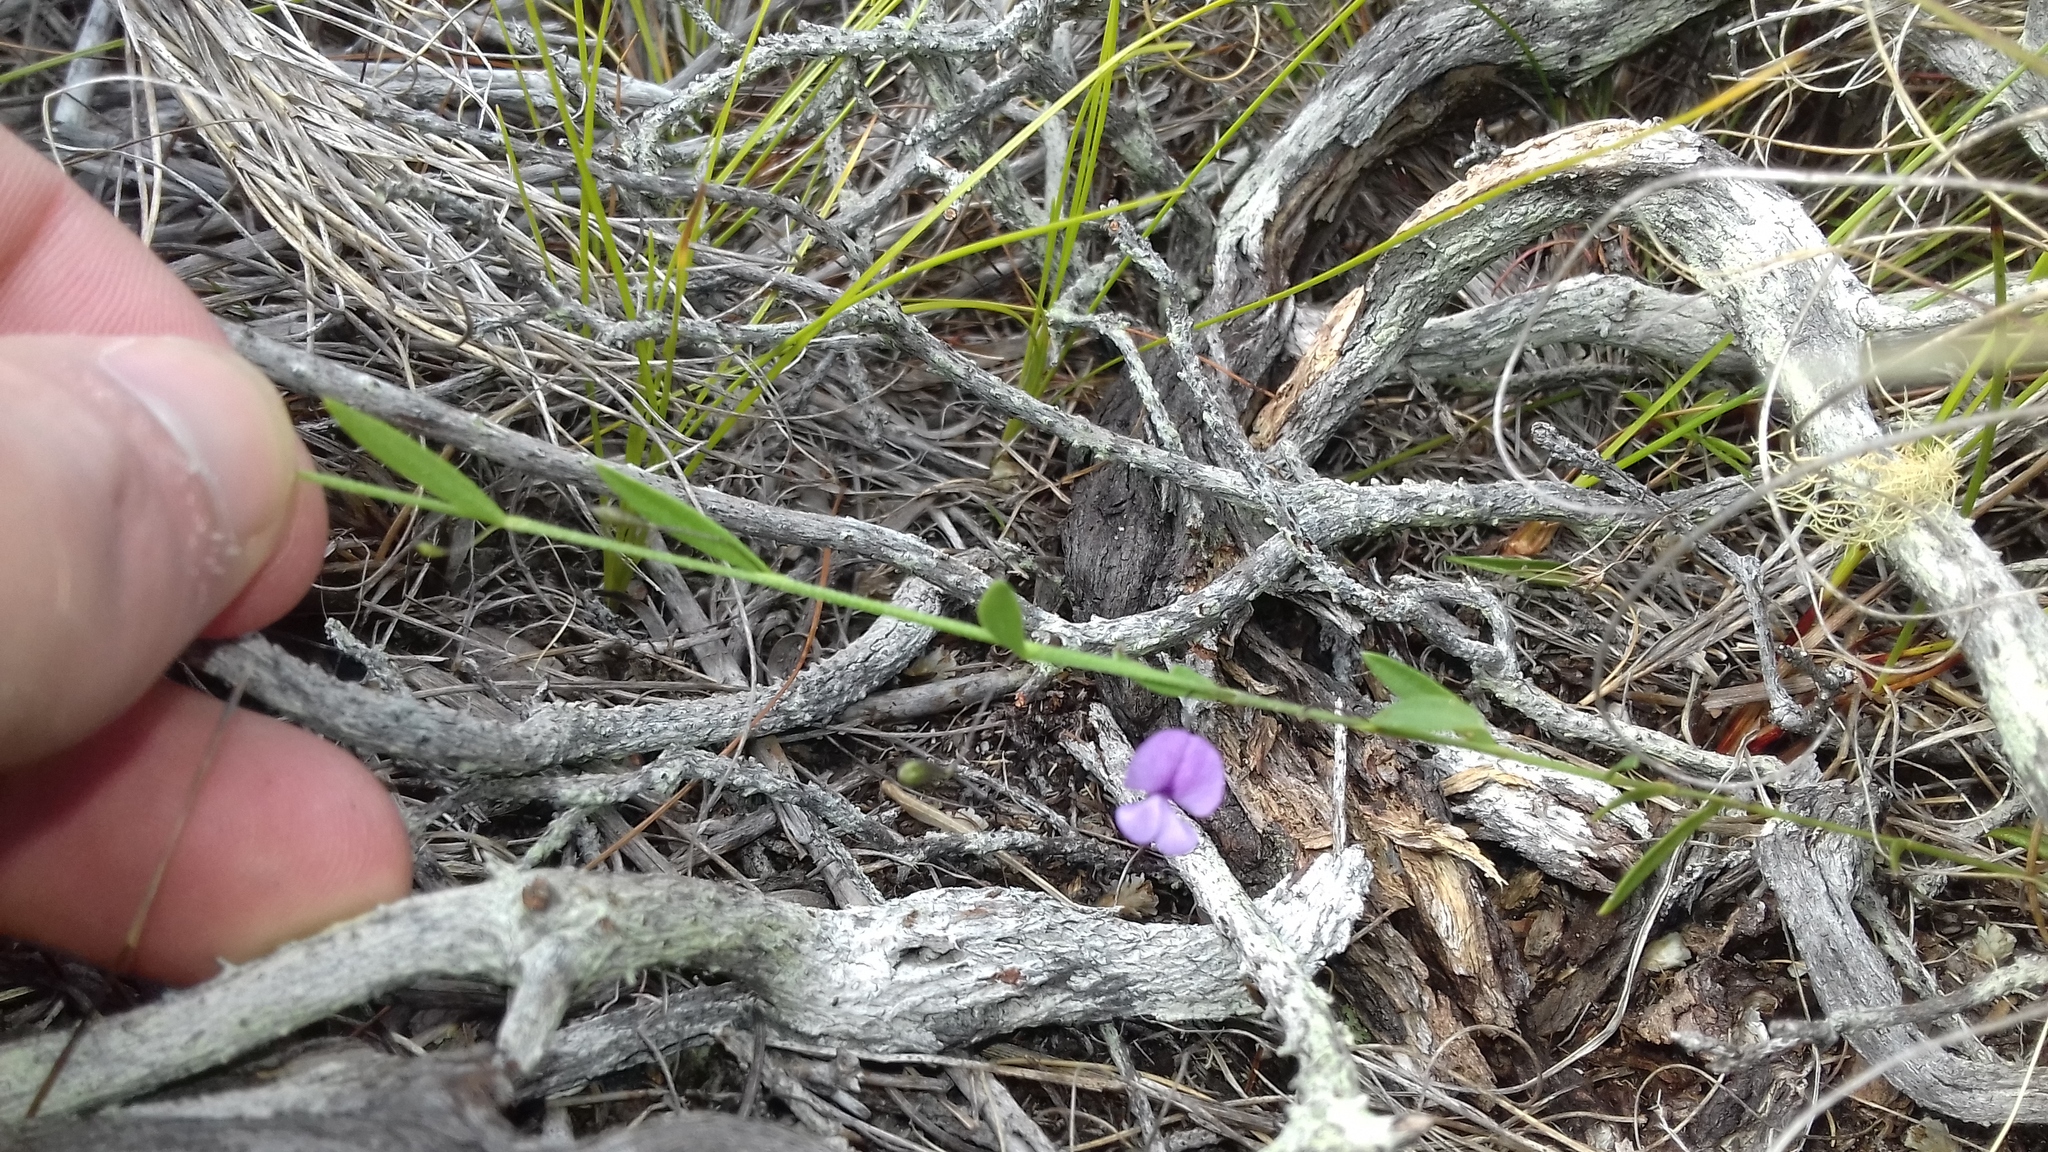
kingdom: Plantae
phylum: Tracheophyta
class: Magnoliopsida
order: Fabales
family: Fabaceae
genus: Psoralea
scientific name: Psoralea laxa
